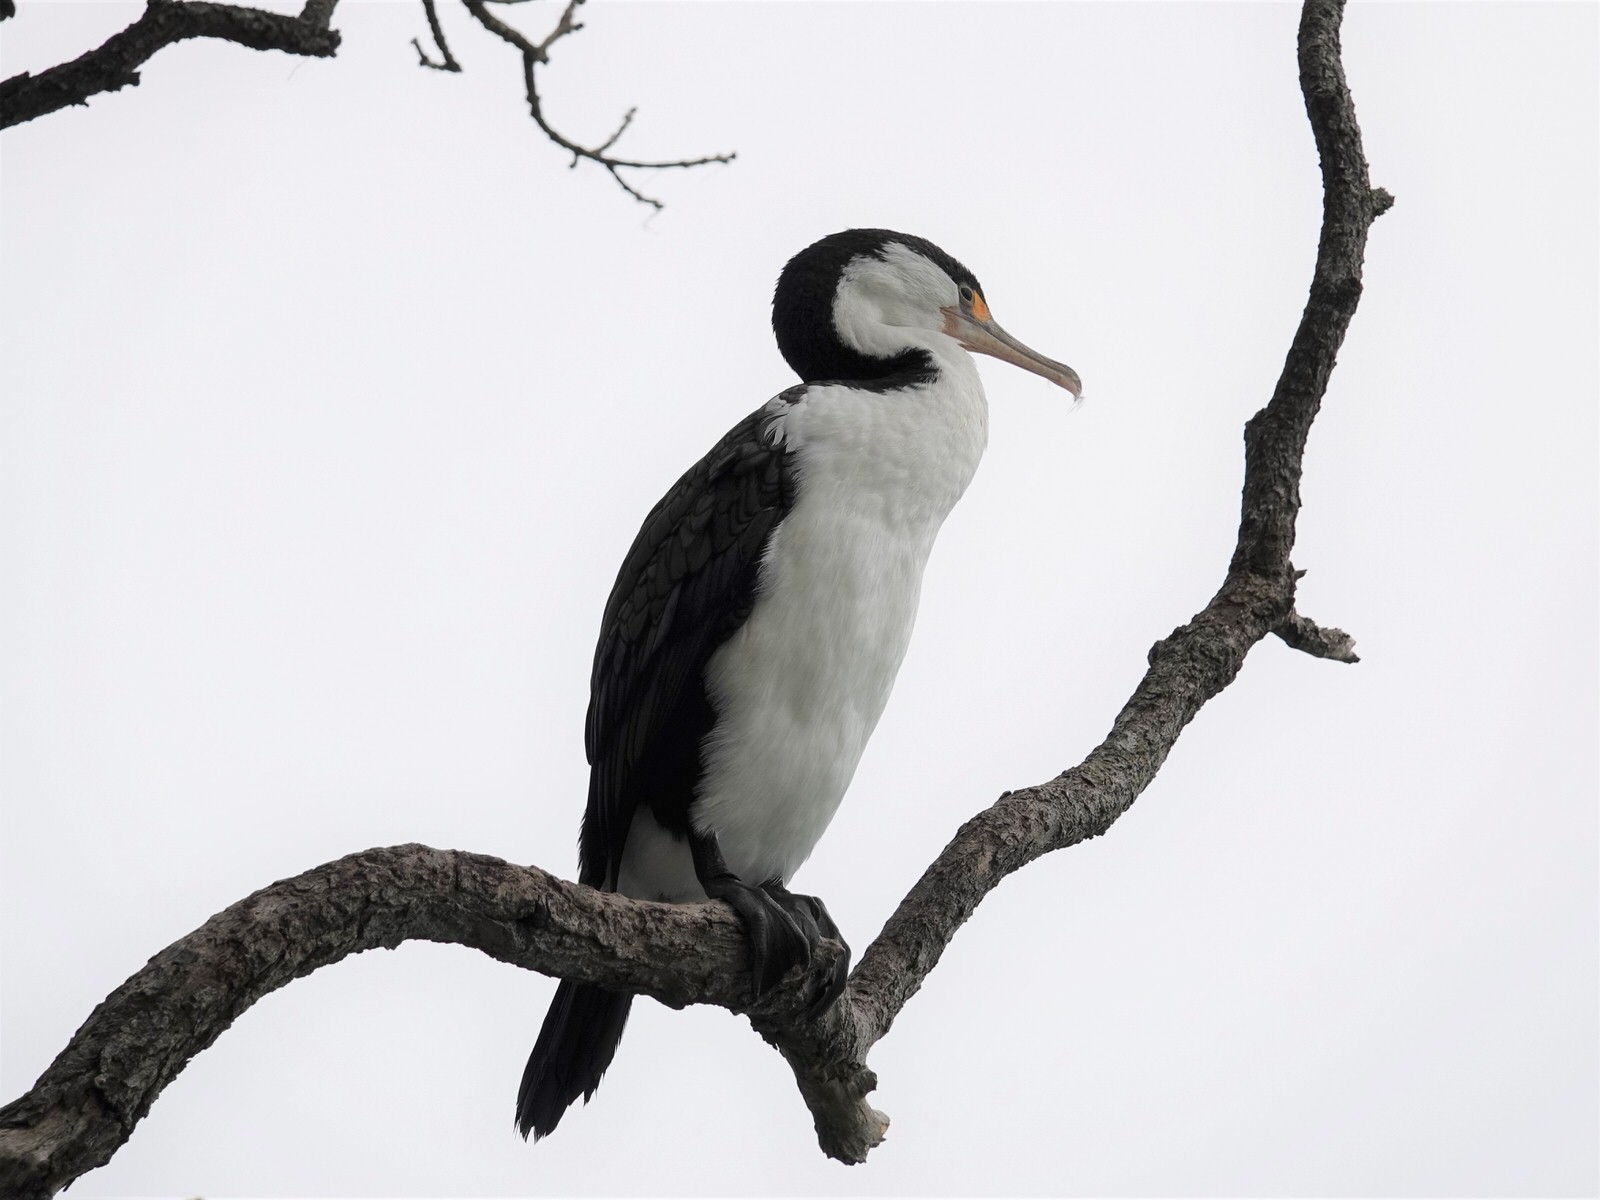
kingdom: Animalia
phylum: Chordata
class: Aves
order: Suliformes
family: Phalacrocoracidae
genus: Phalacrocorax
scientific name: Phalacrocorax varius
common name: Pied cormorant
